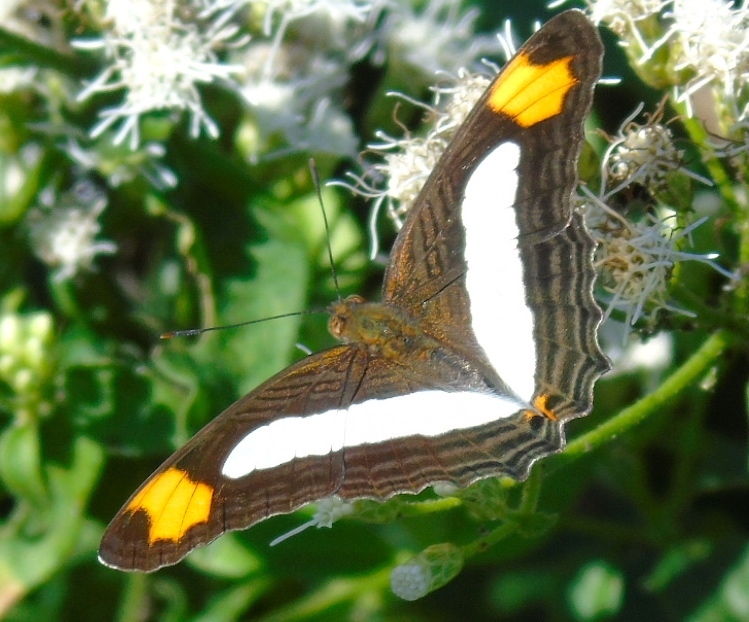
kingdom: Animalia
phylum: Arthropoda
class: Insecta
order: Lepidoptera
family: Nymphalidae
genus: Limenitis
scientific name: Limenitis iphiclus
